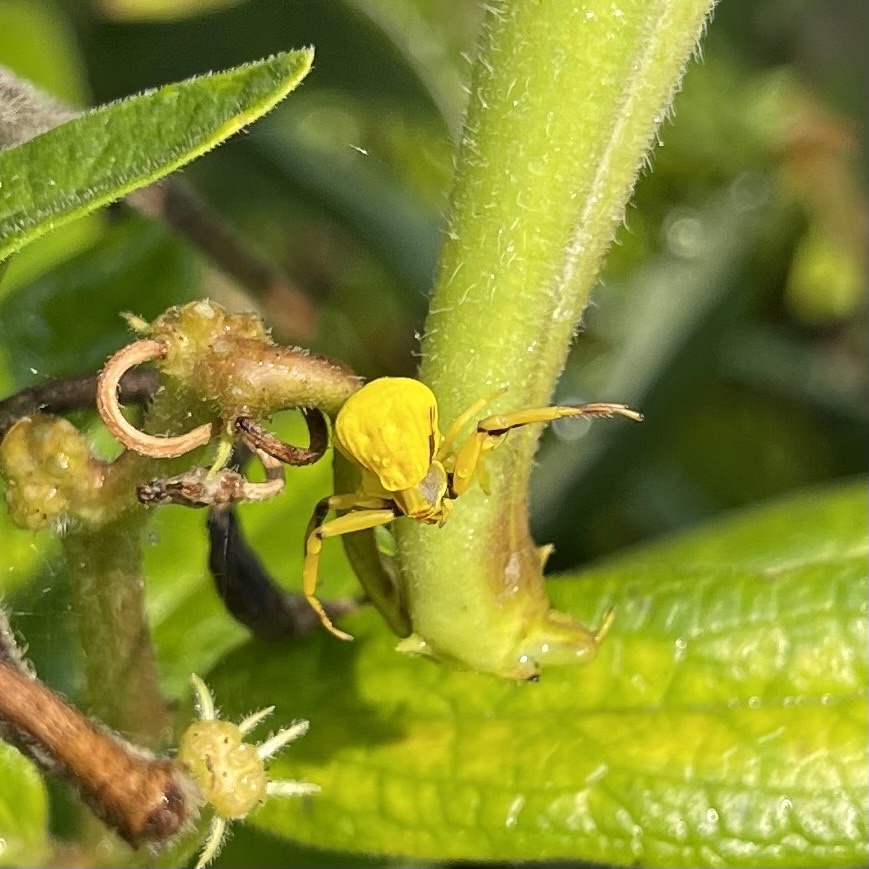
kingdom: Animalia
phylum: Arthropoda
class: Arachnida
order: Araneae
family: Thomisidae
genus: Misumenoides
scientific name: Misumenoides formosipes
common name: White-banded crab spider
